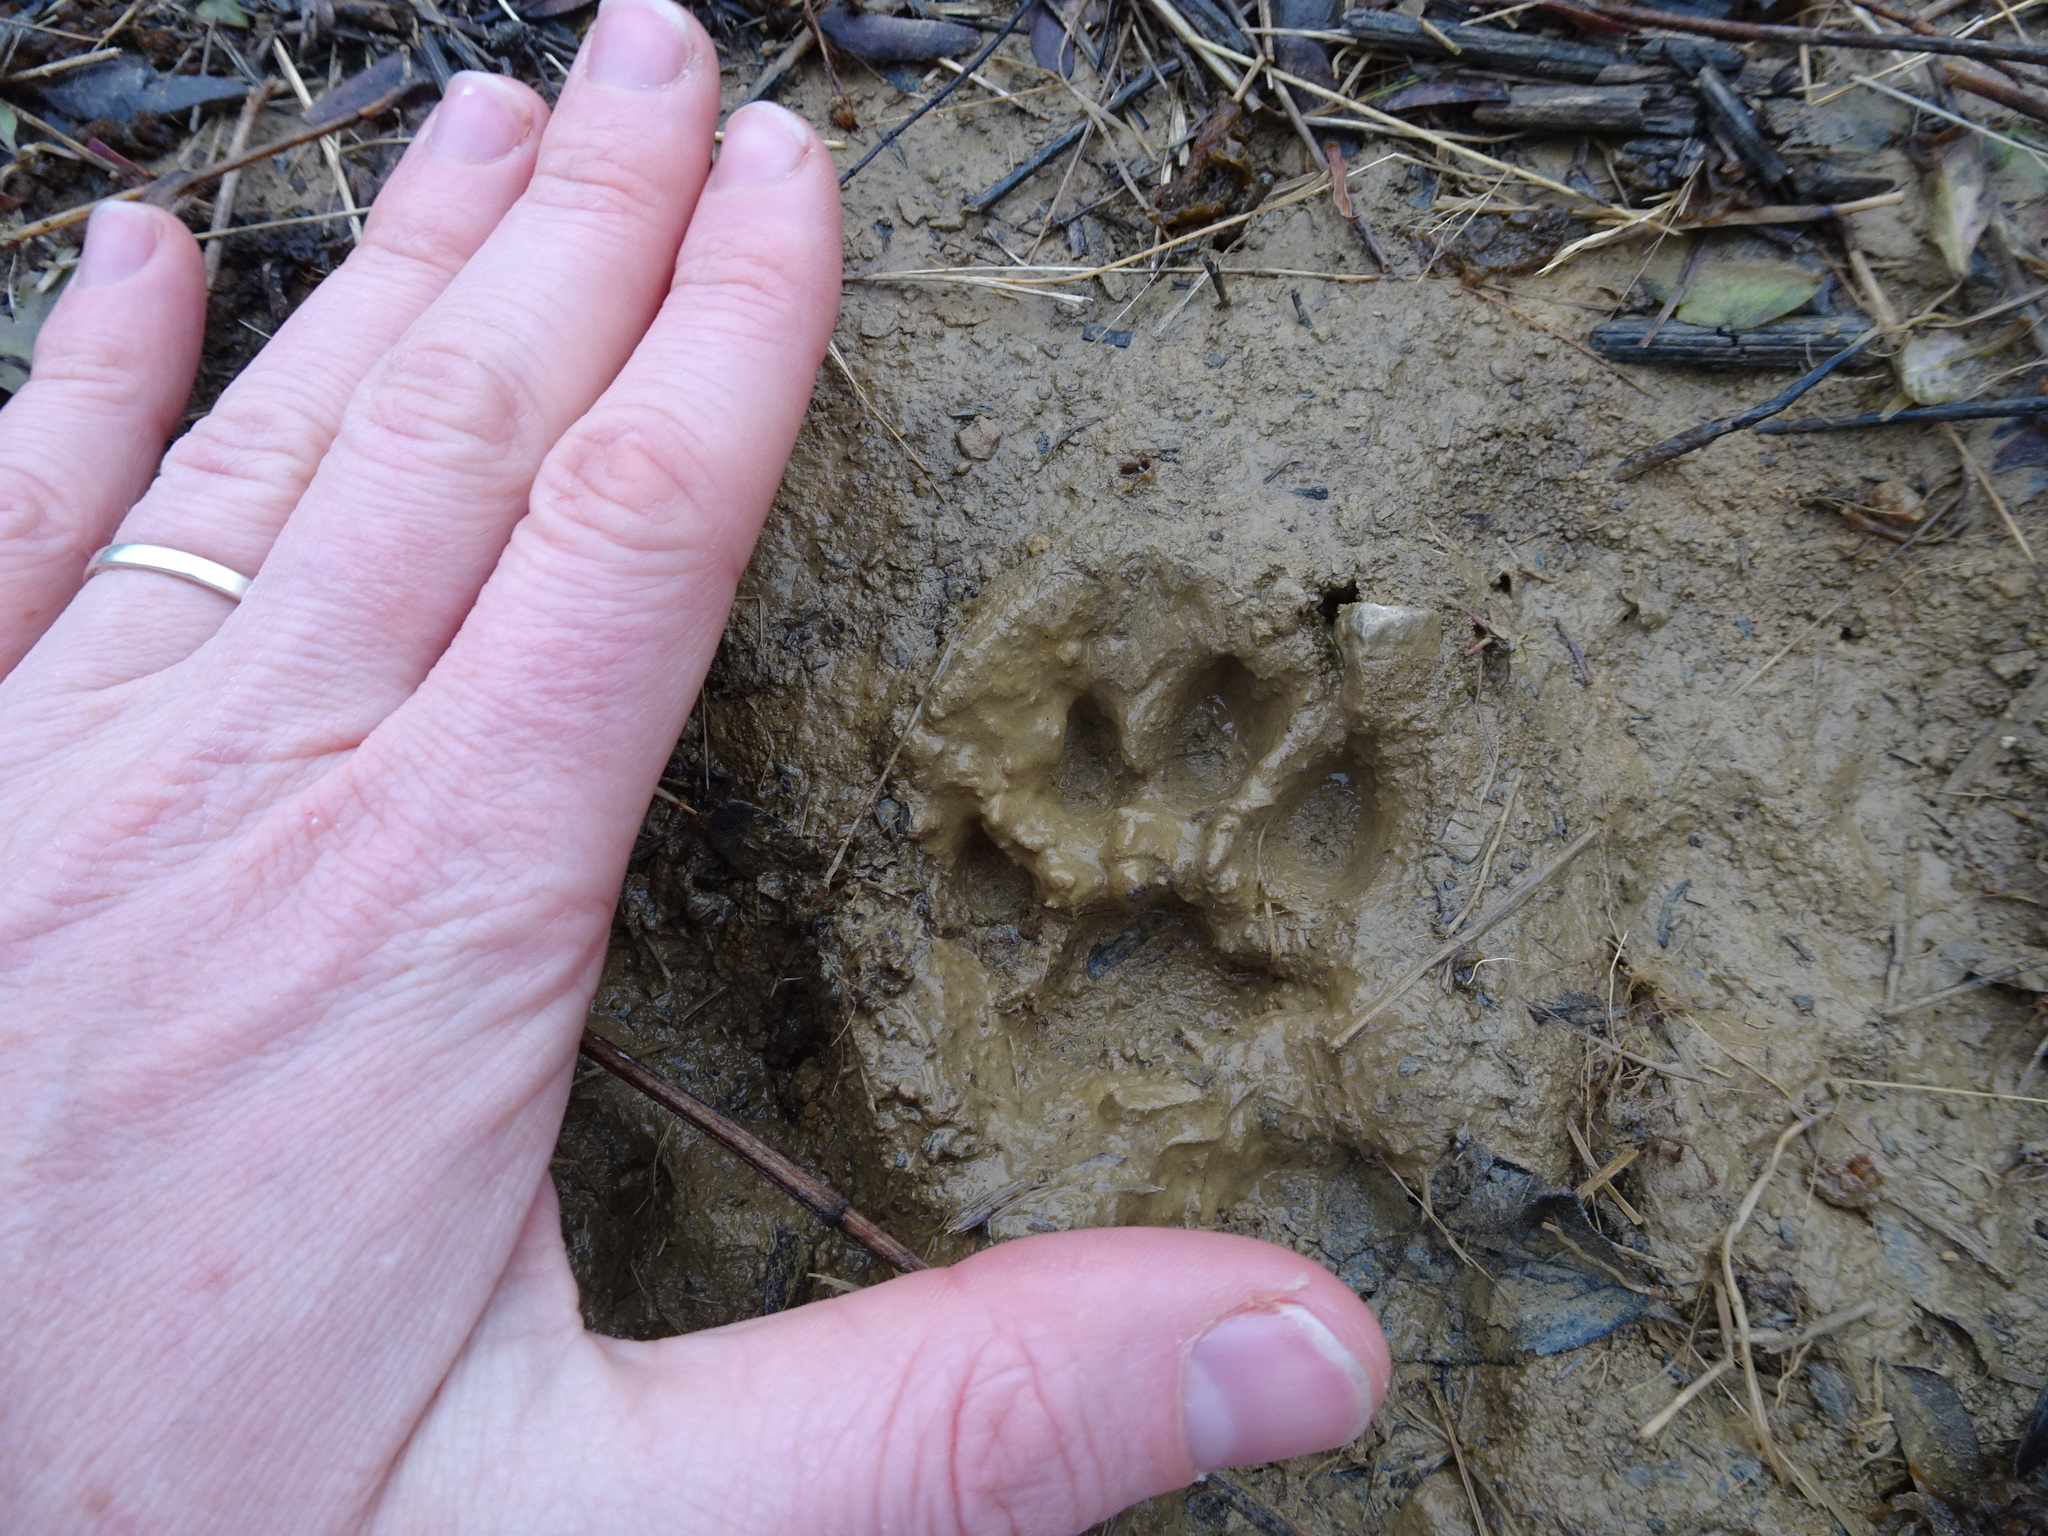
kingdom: Animalia
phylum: Chordata
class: Mammalia
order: Carnivora
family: Felidae
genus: Lynx
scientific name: Lynx rufus
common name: Bobcat
